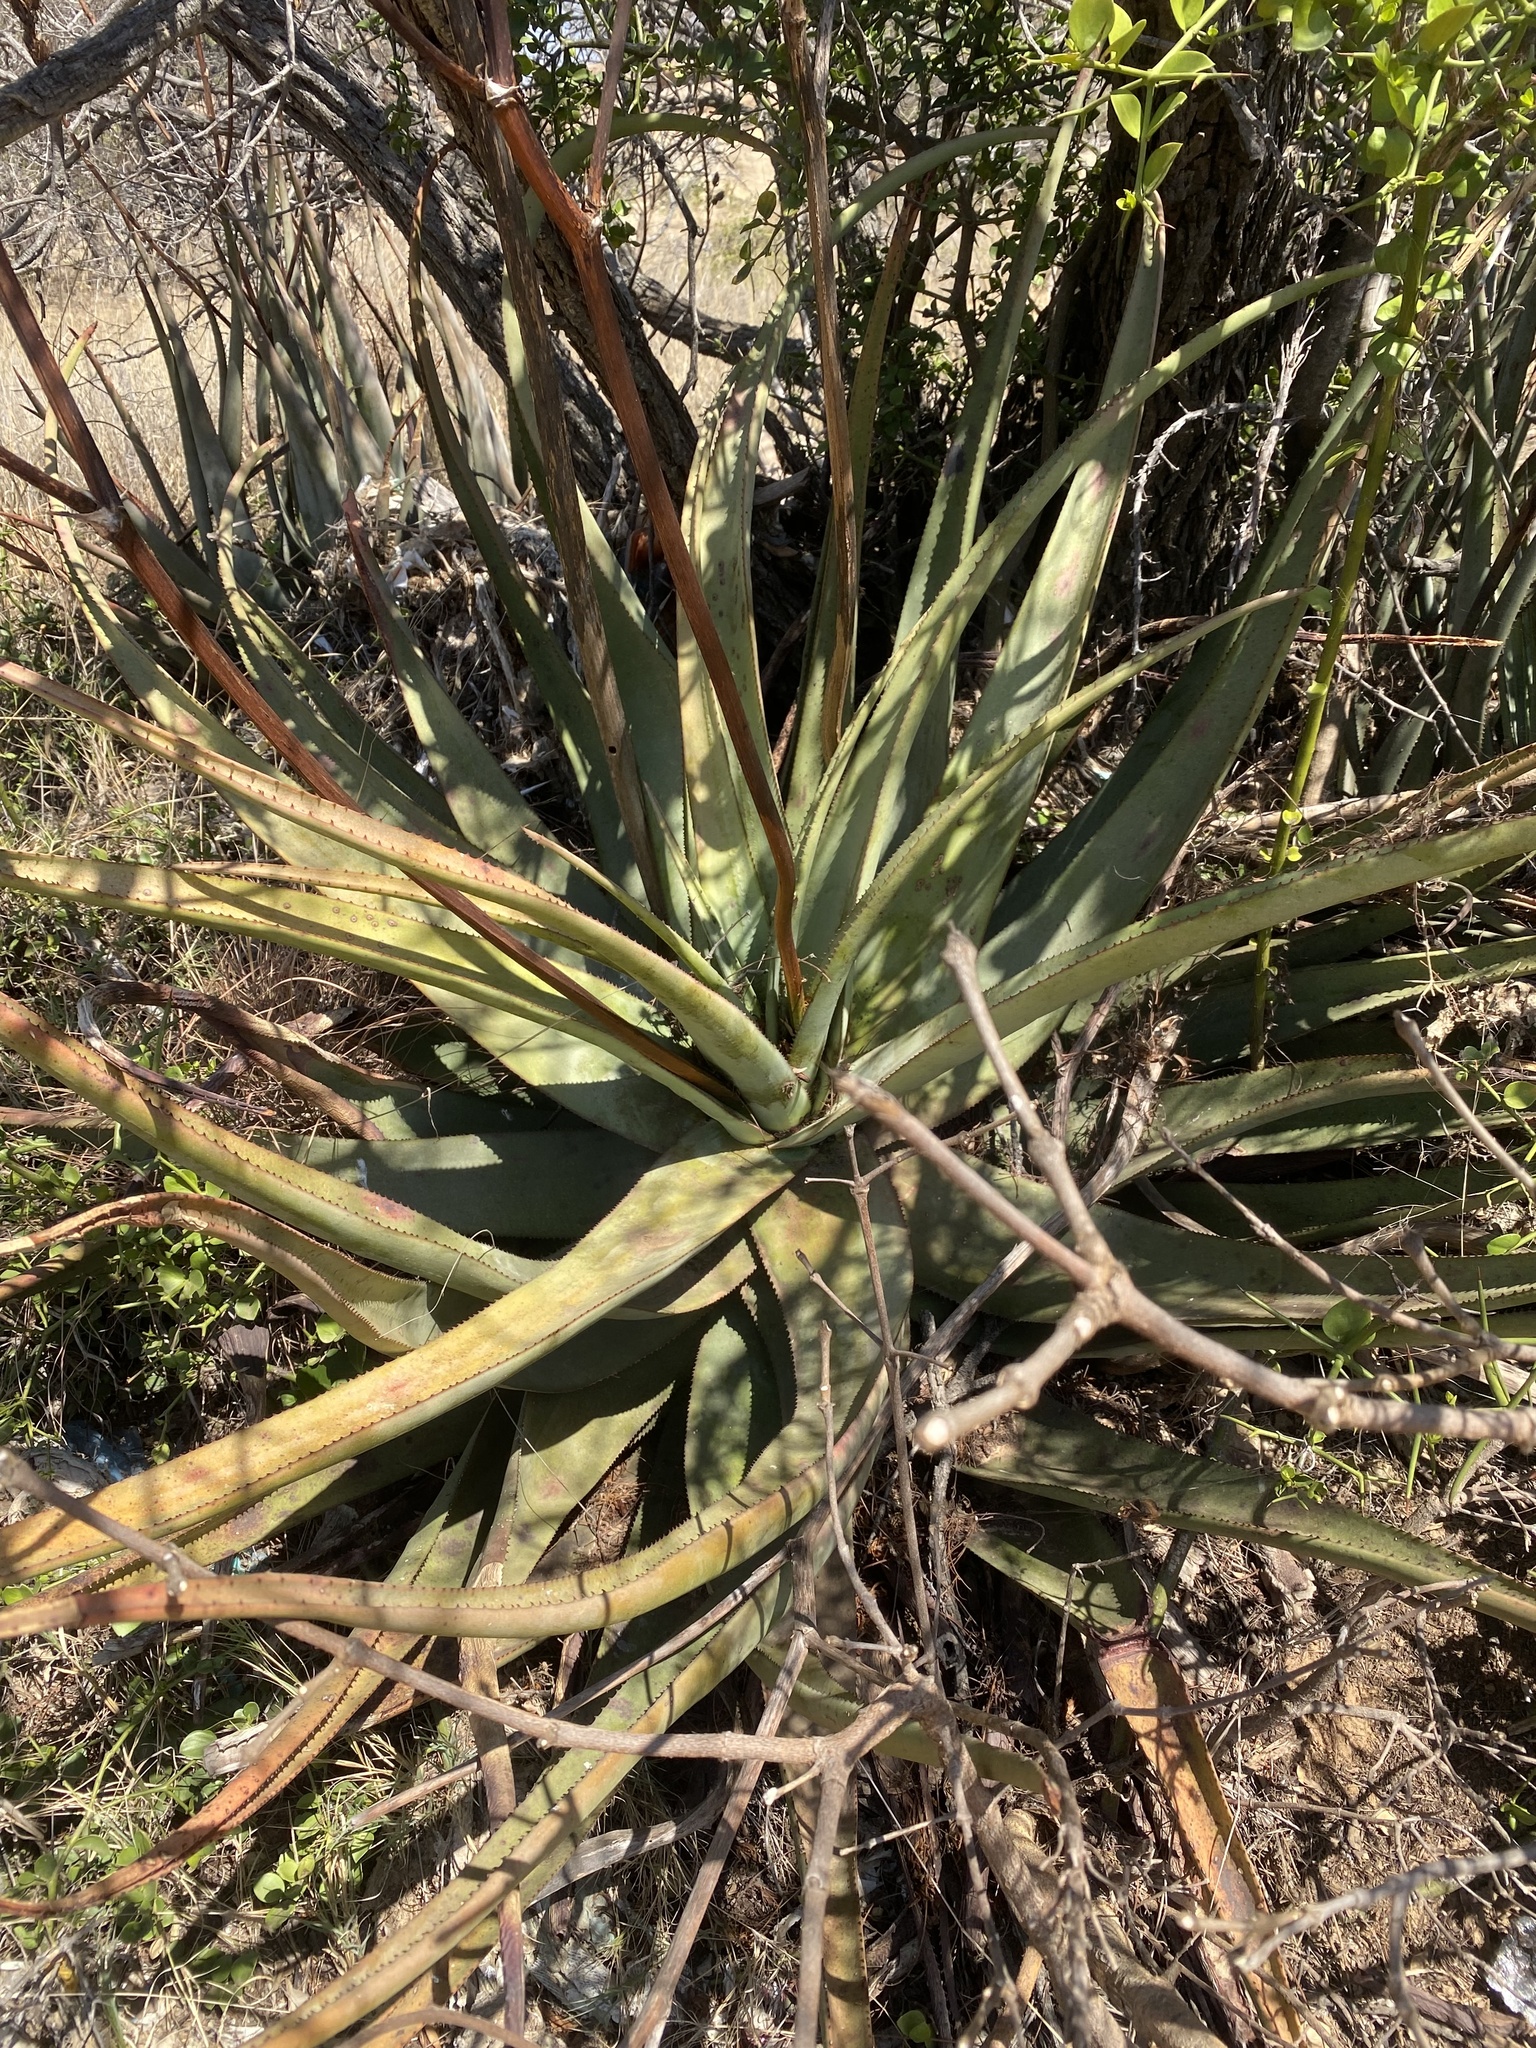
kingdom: Plantae
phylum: Tracheophyta
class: Liliopsida
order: Asparagales
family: Asphodelaceae
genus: Aloe
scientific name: Aloe pienaarii
